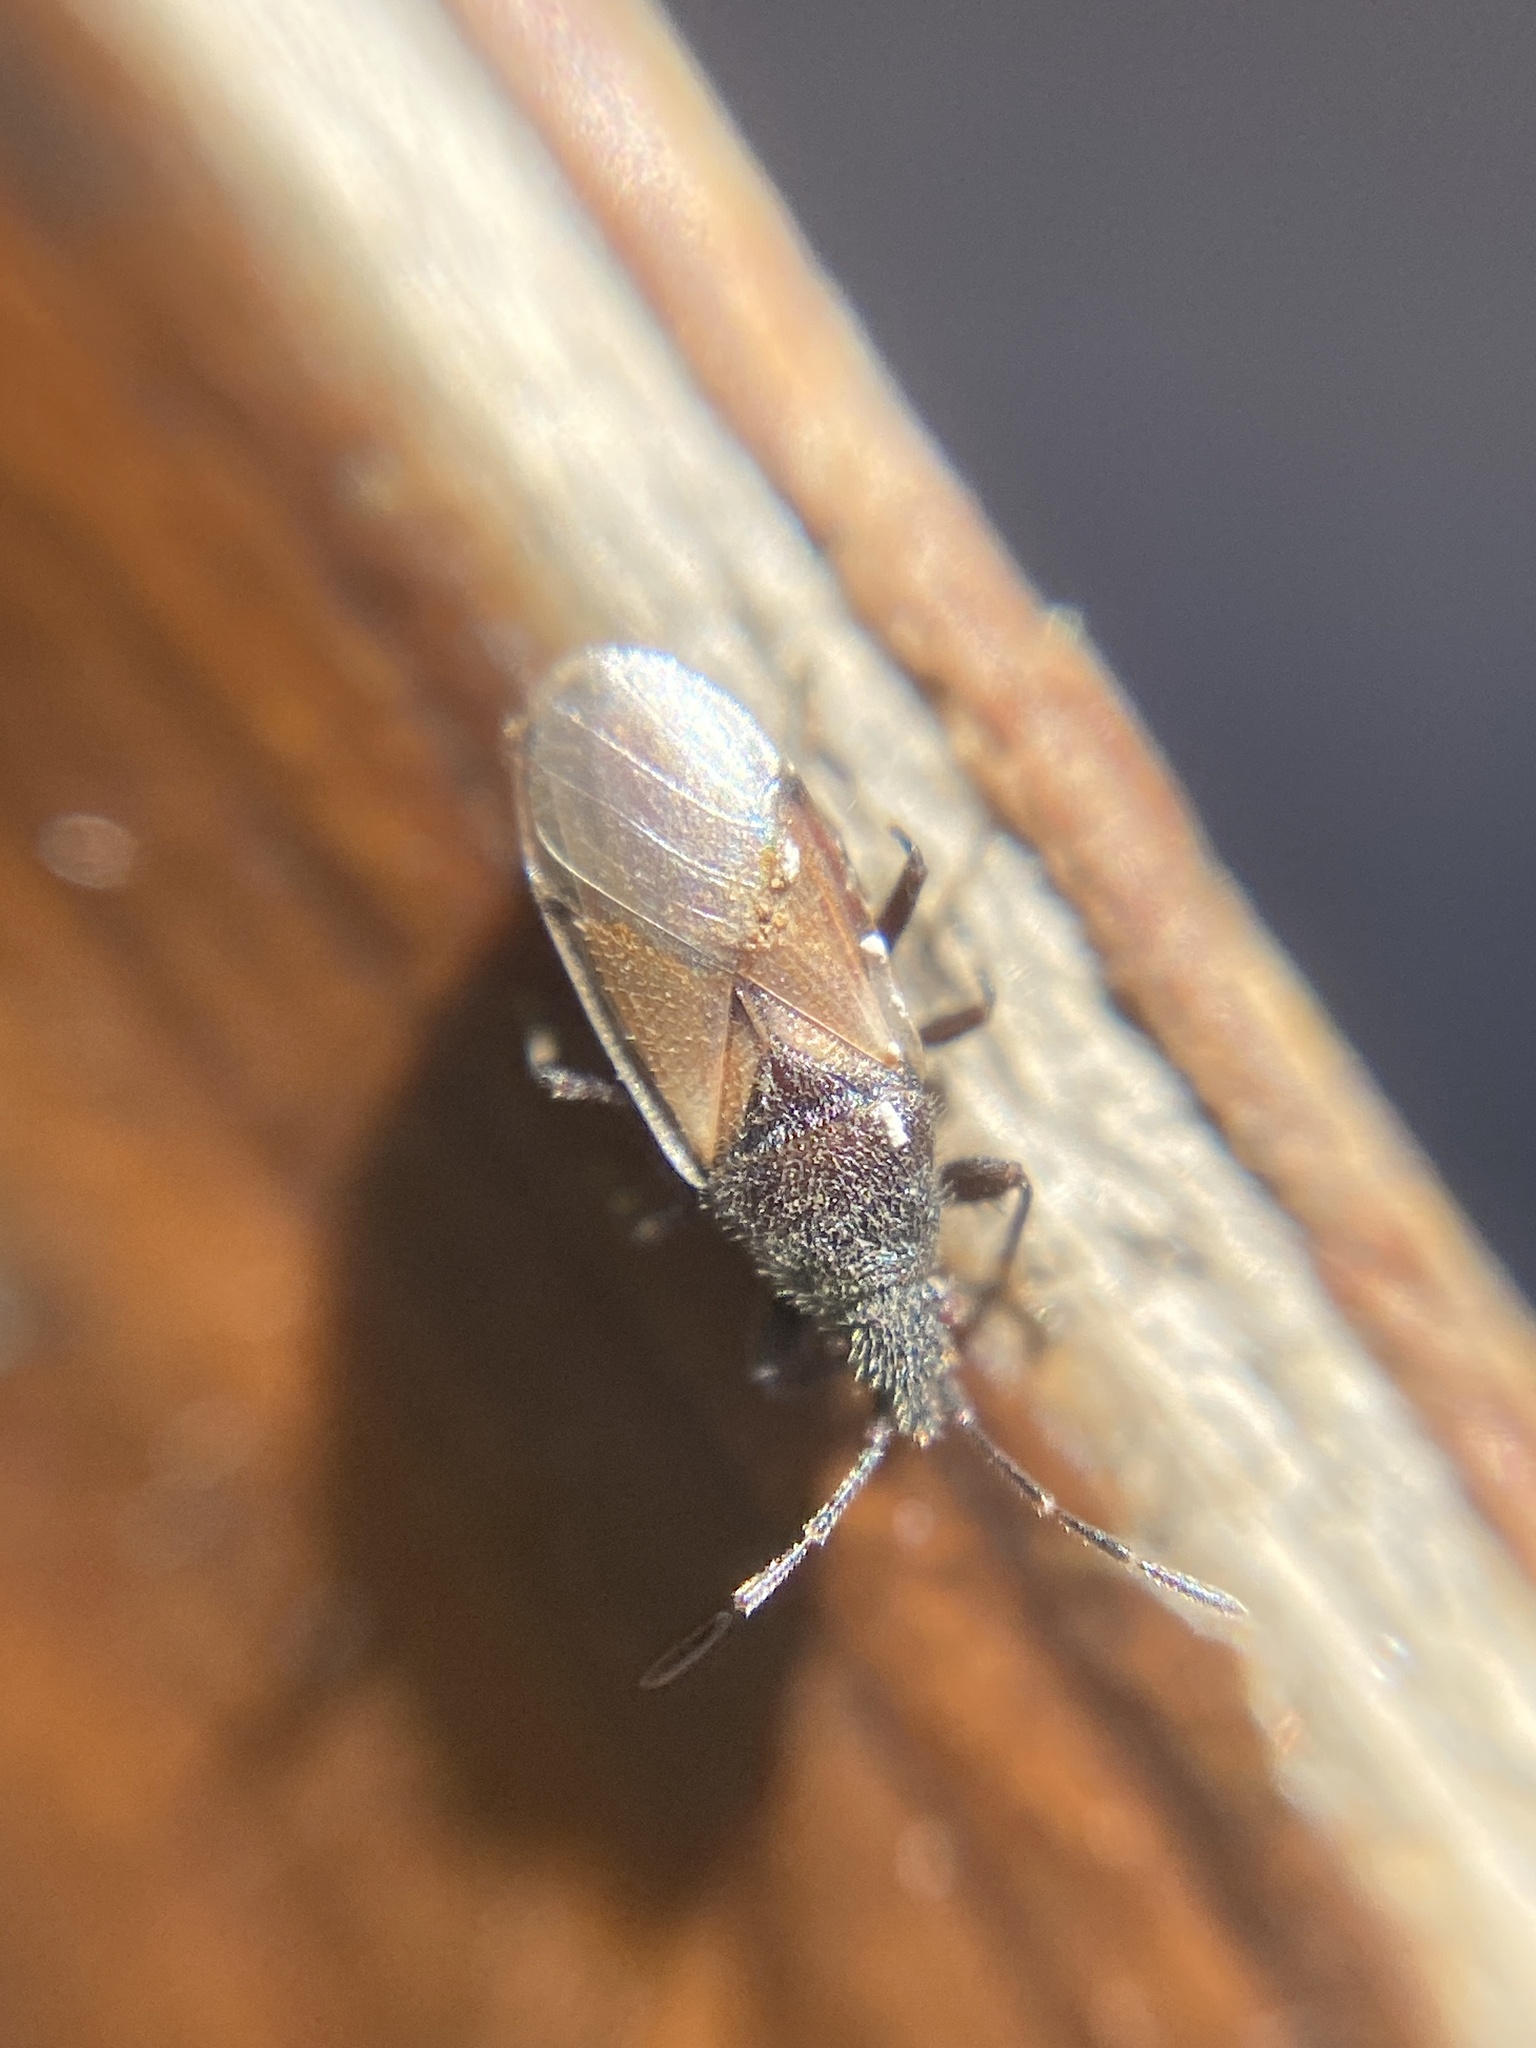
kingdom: Animalia
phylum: Arthropoda
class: Insecta
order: Hemiptera
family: Oxycarenidae
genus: Oxycarenus
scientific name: Oxycarenus hyalinipennis
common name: Cotton seed bug
